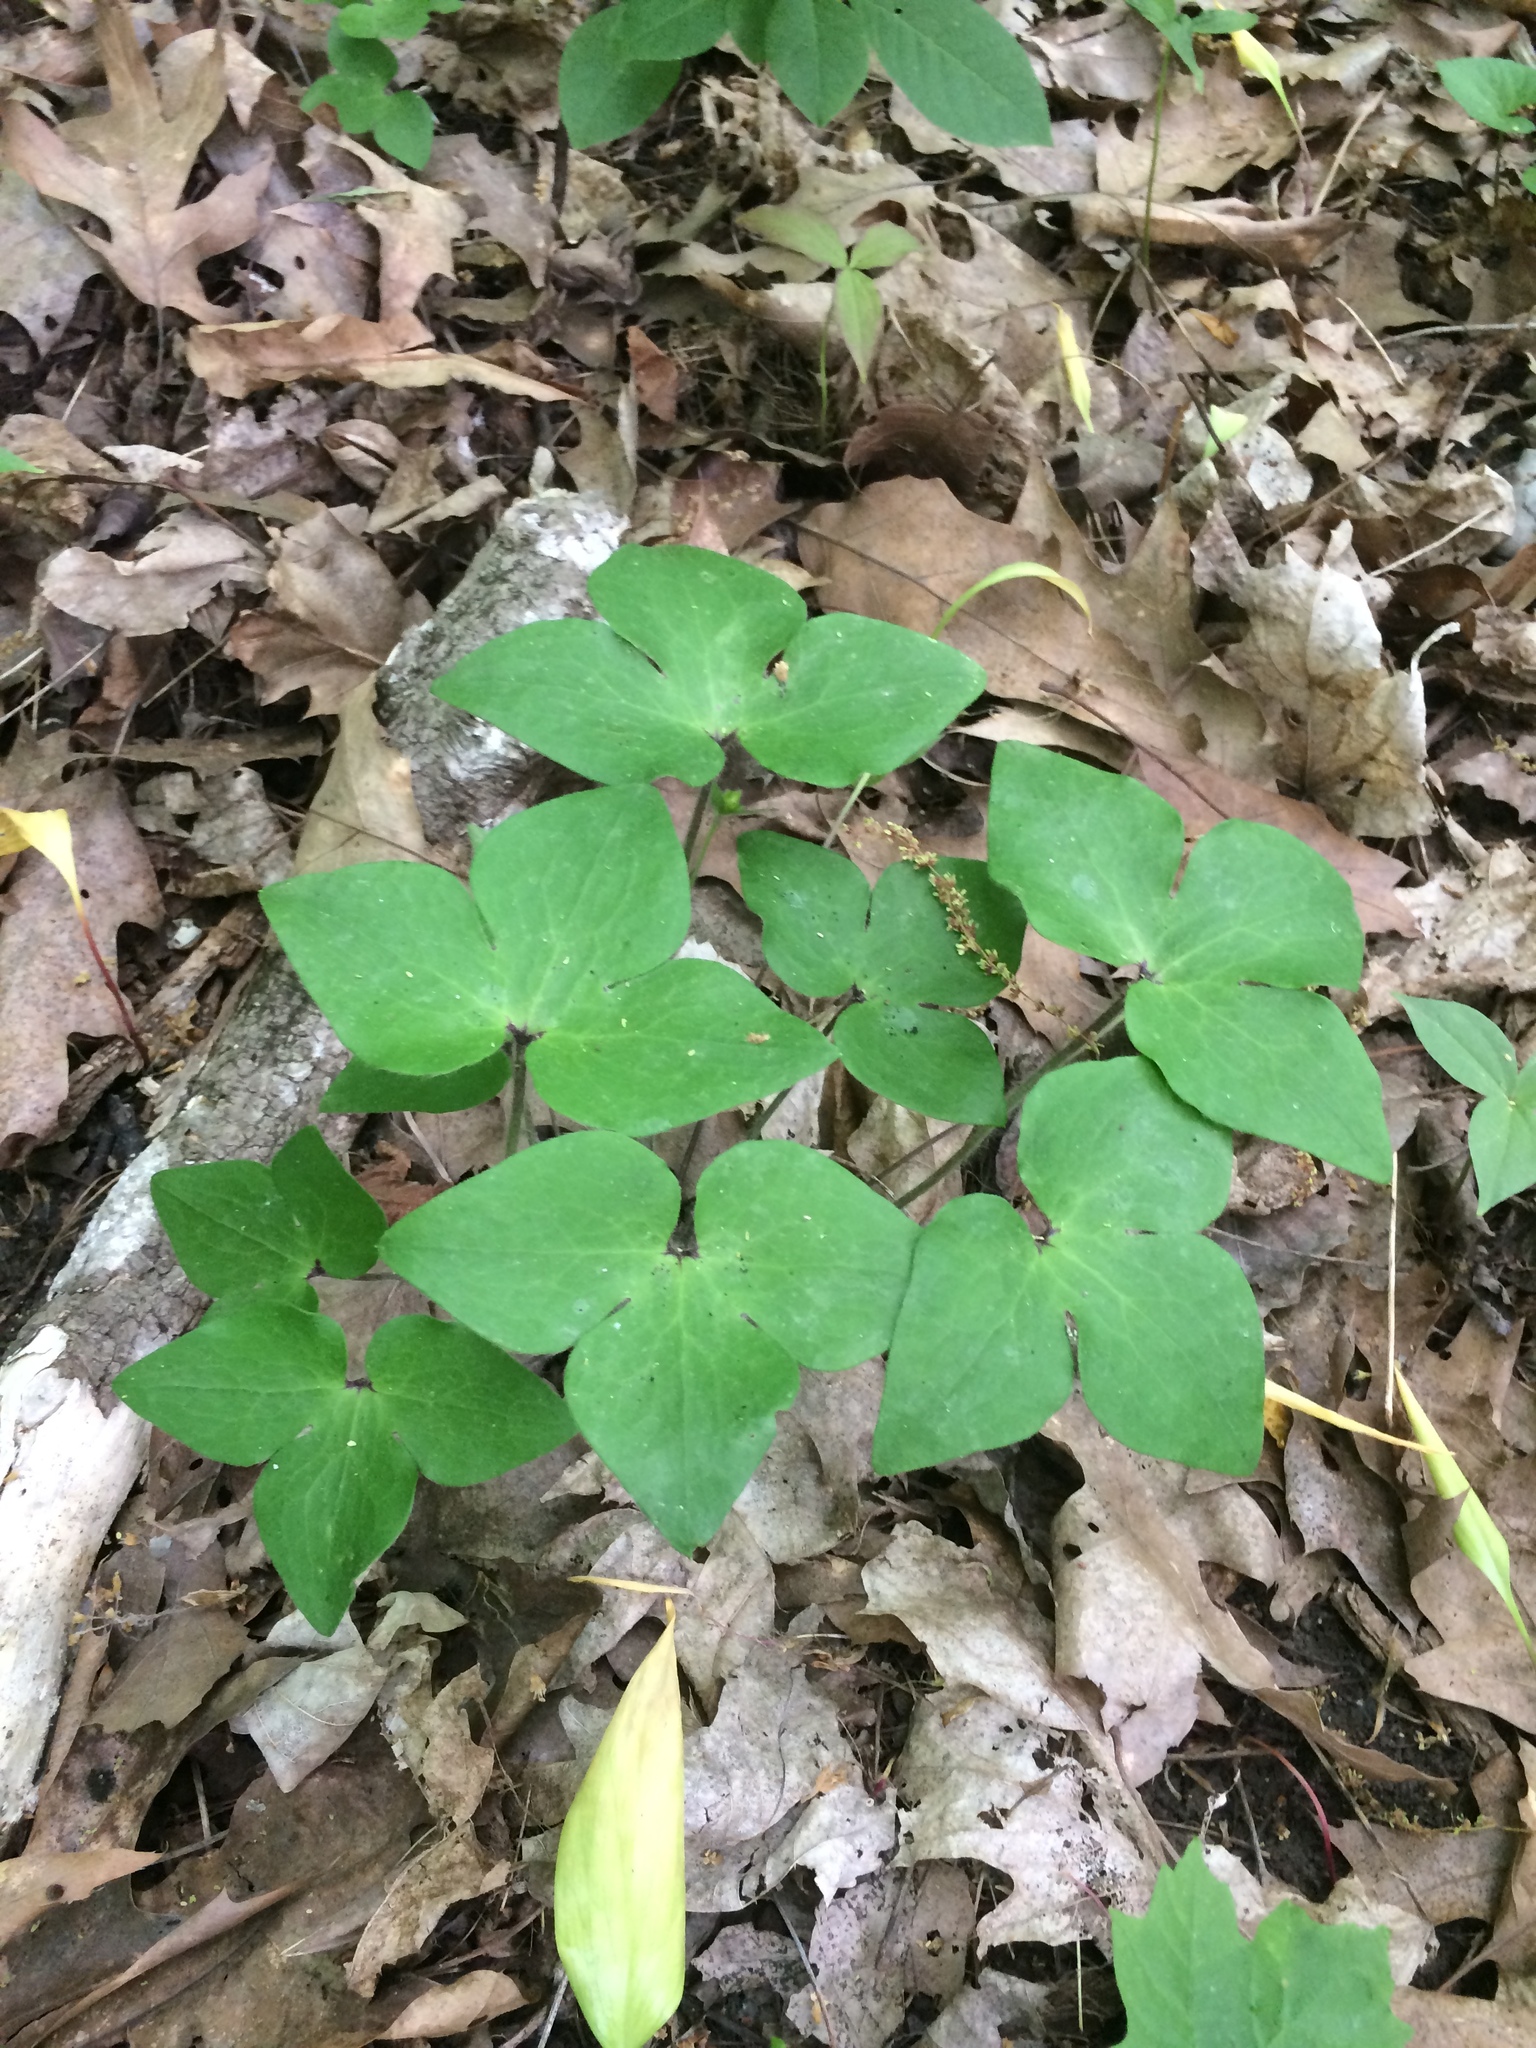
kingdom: Plantae
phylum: Tracheophyta
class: Magnoliopsida
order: Ranunculales
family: Ranunculaceae
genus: Hepatica
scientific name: Hepatica acutiloba
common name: Sharp-lobed hepatica
